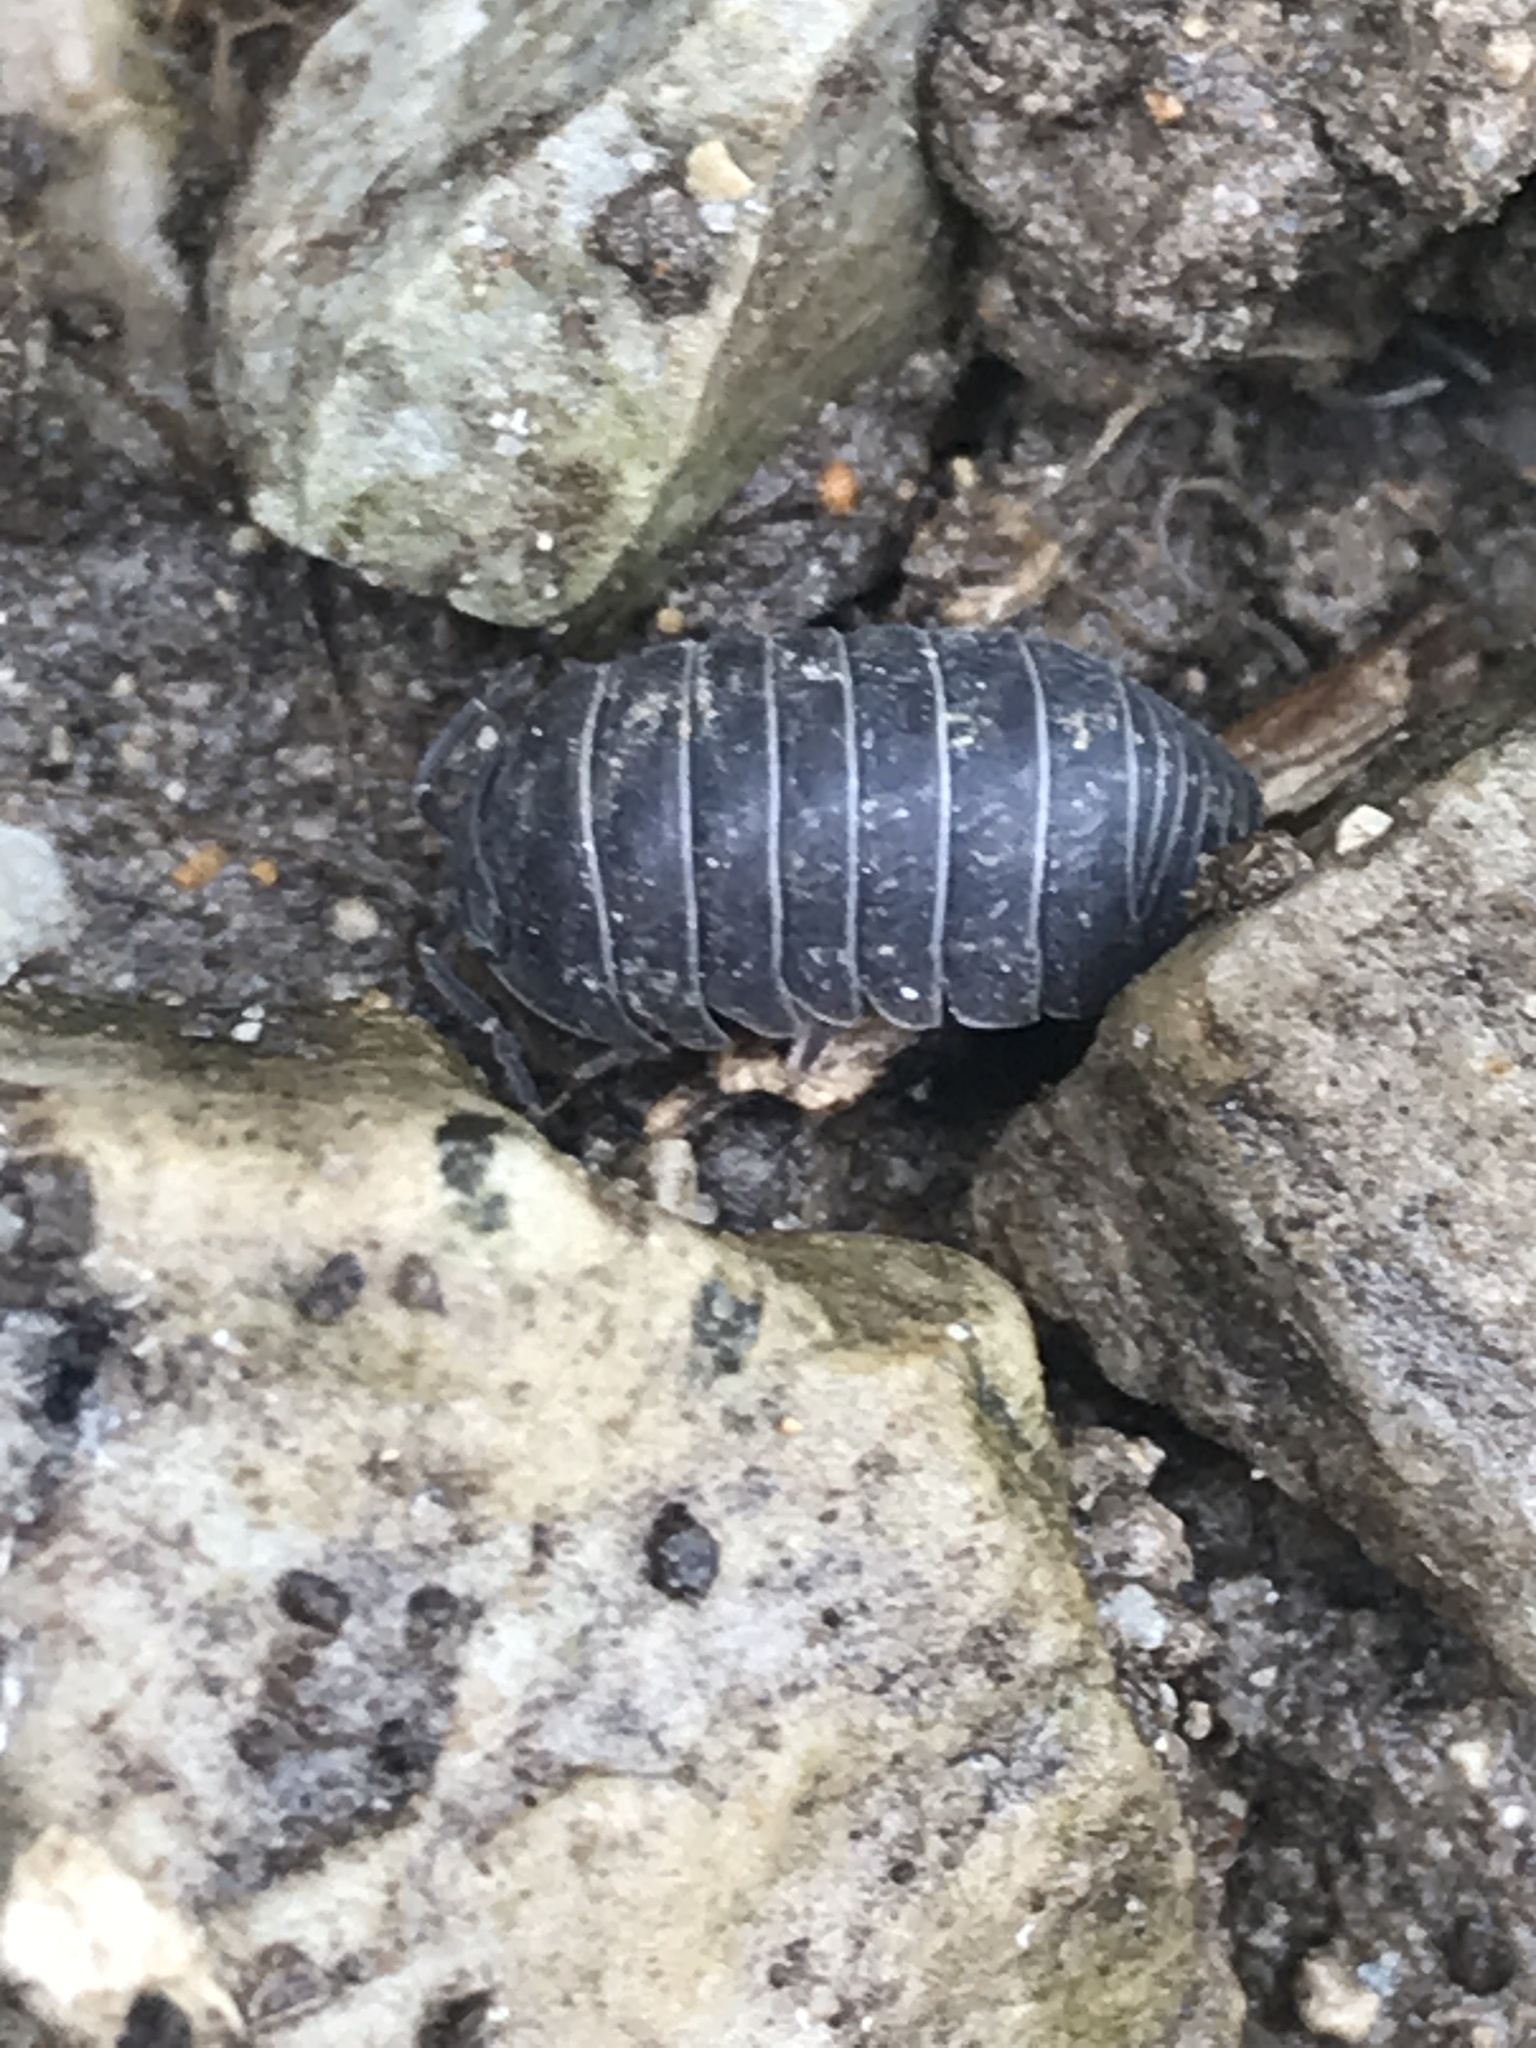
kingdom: Animalia
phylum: Arthropoda
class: Malacostraca
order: Isopoda
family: Armadillidiidae
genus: Armadillidium
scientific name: Armadillidium vulgare
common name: Common pill woodlouse
